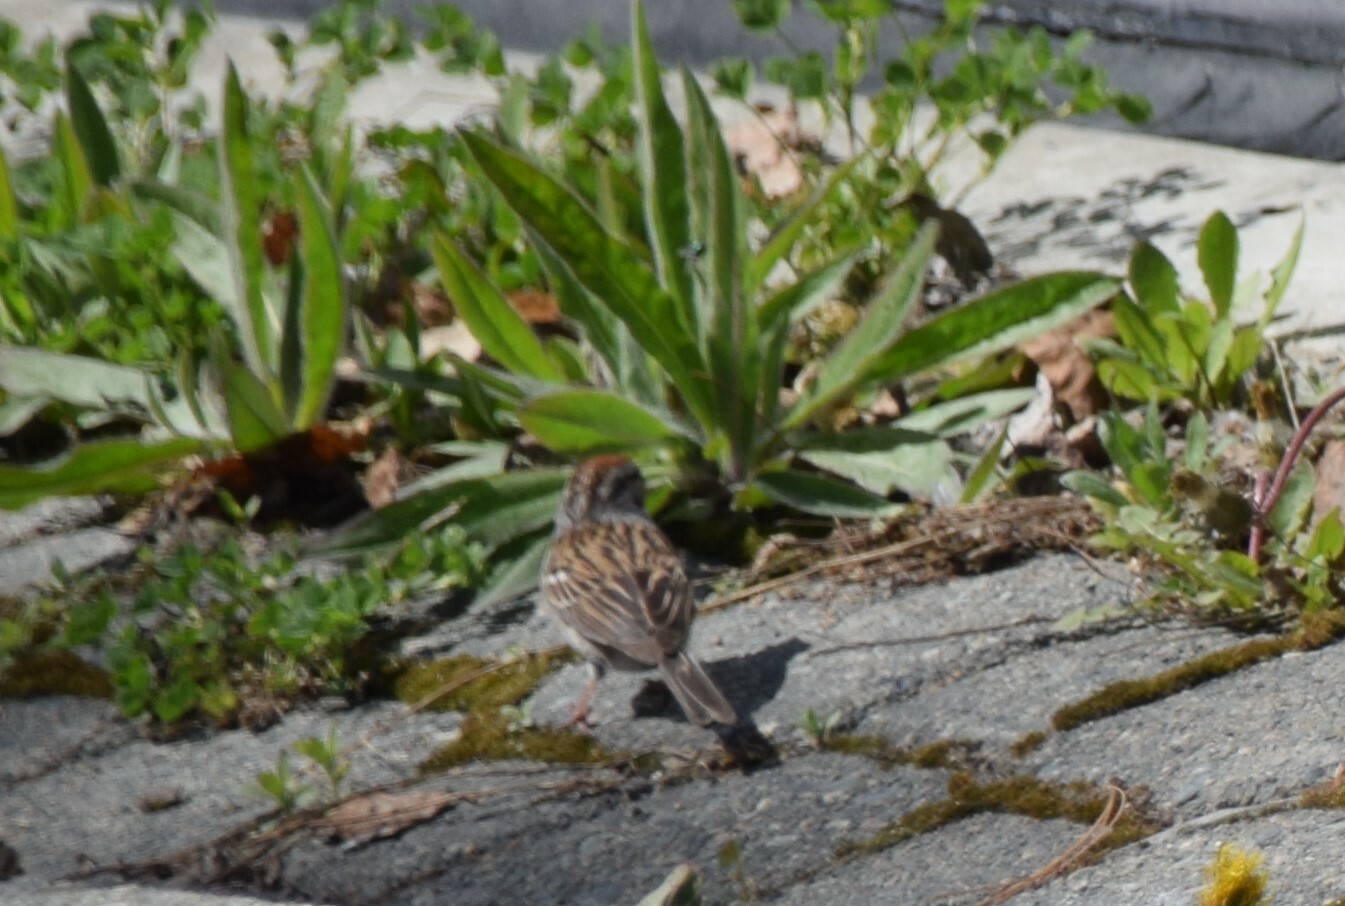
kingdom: Animalia
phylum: Chordata
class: Aves
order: Passeriformes
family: Passerellidae
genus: Spizella
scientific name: Spizella passerina
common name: Chipping sparrow
